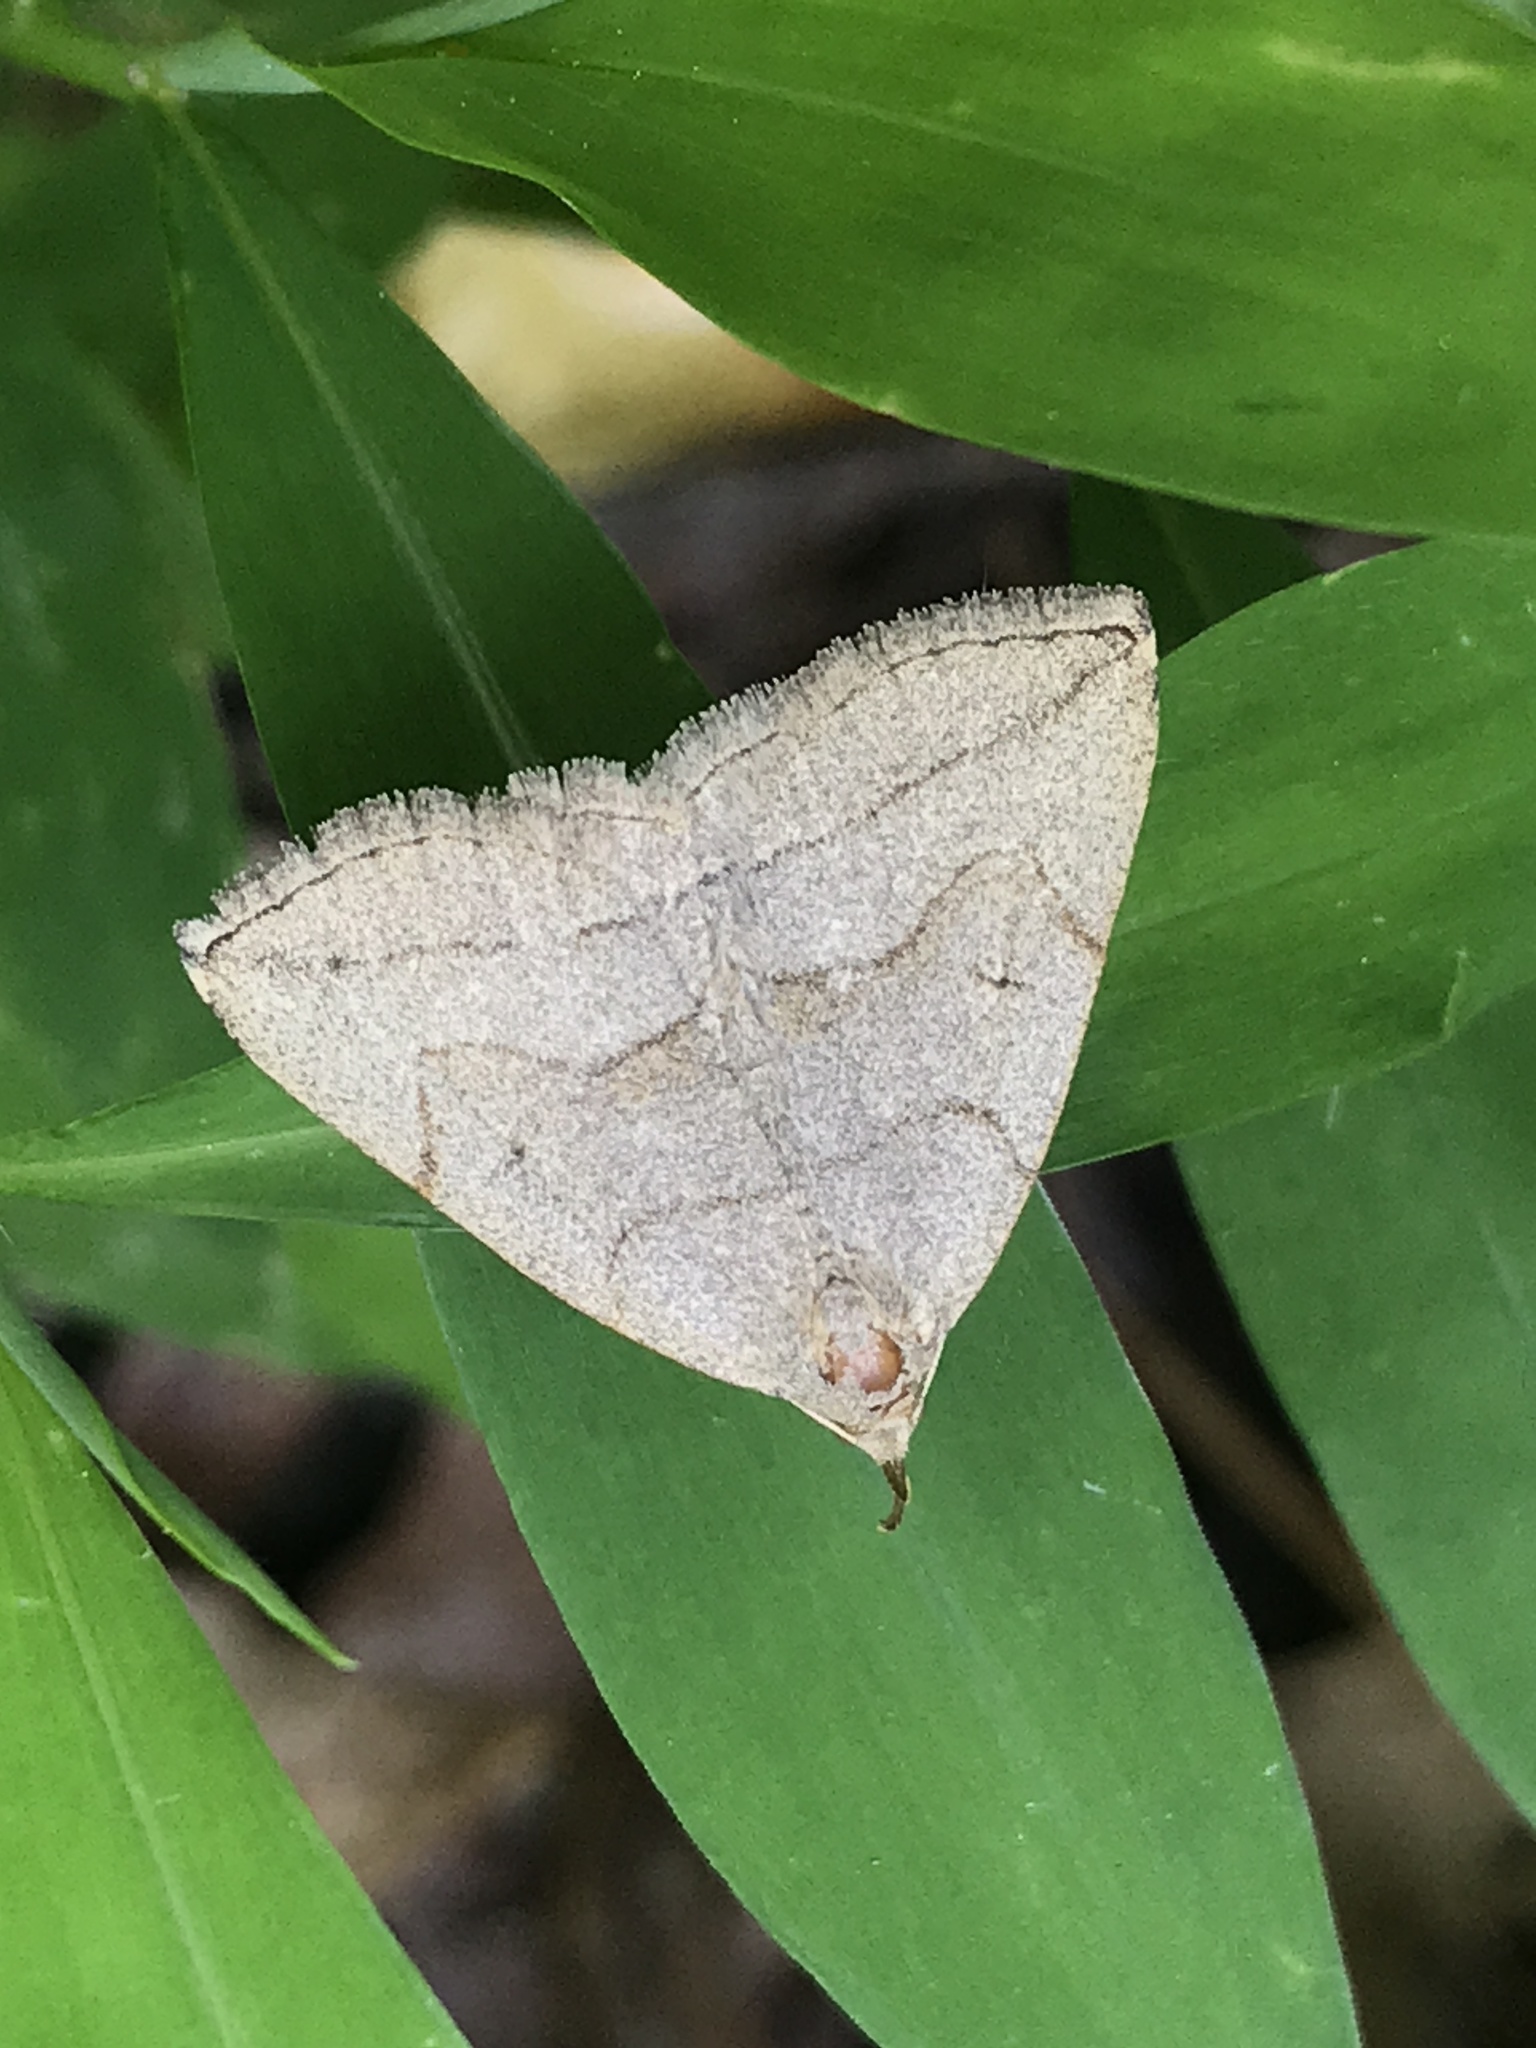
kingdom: Animalia
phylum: Arthropoda
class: Insecta
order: Lepidoptera
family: Erebidae
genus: Zanclognatha
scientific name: Zanclognatha pedipilalis
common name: Grayish fan-foot
